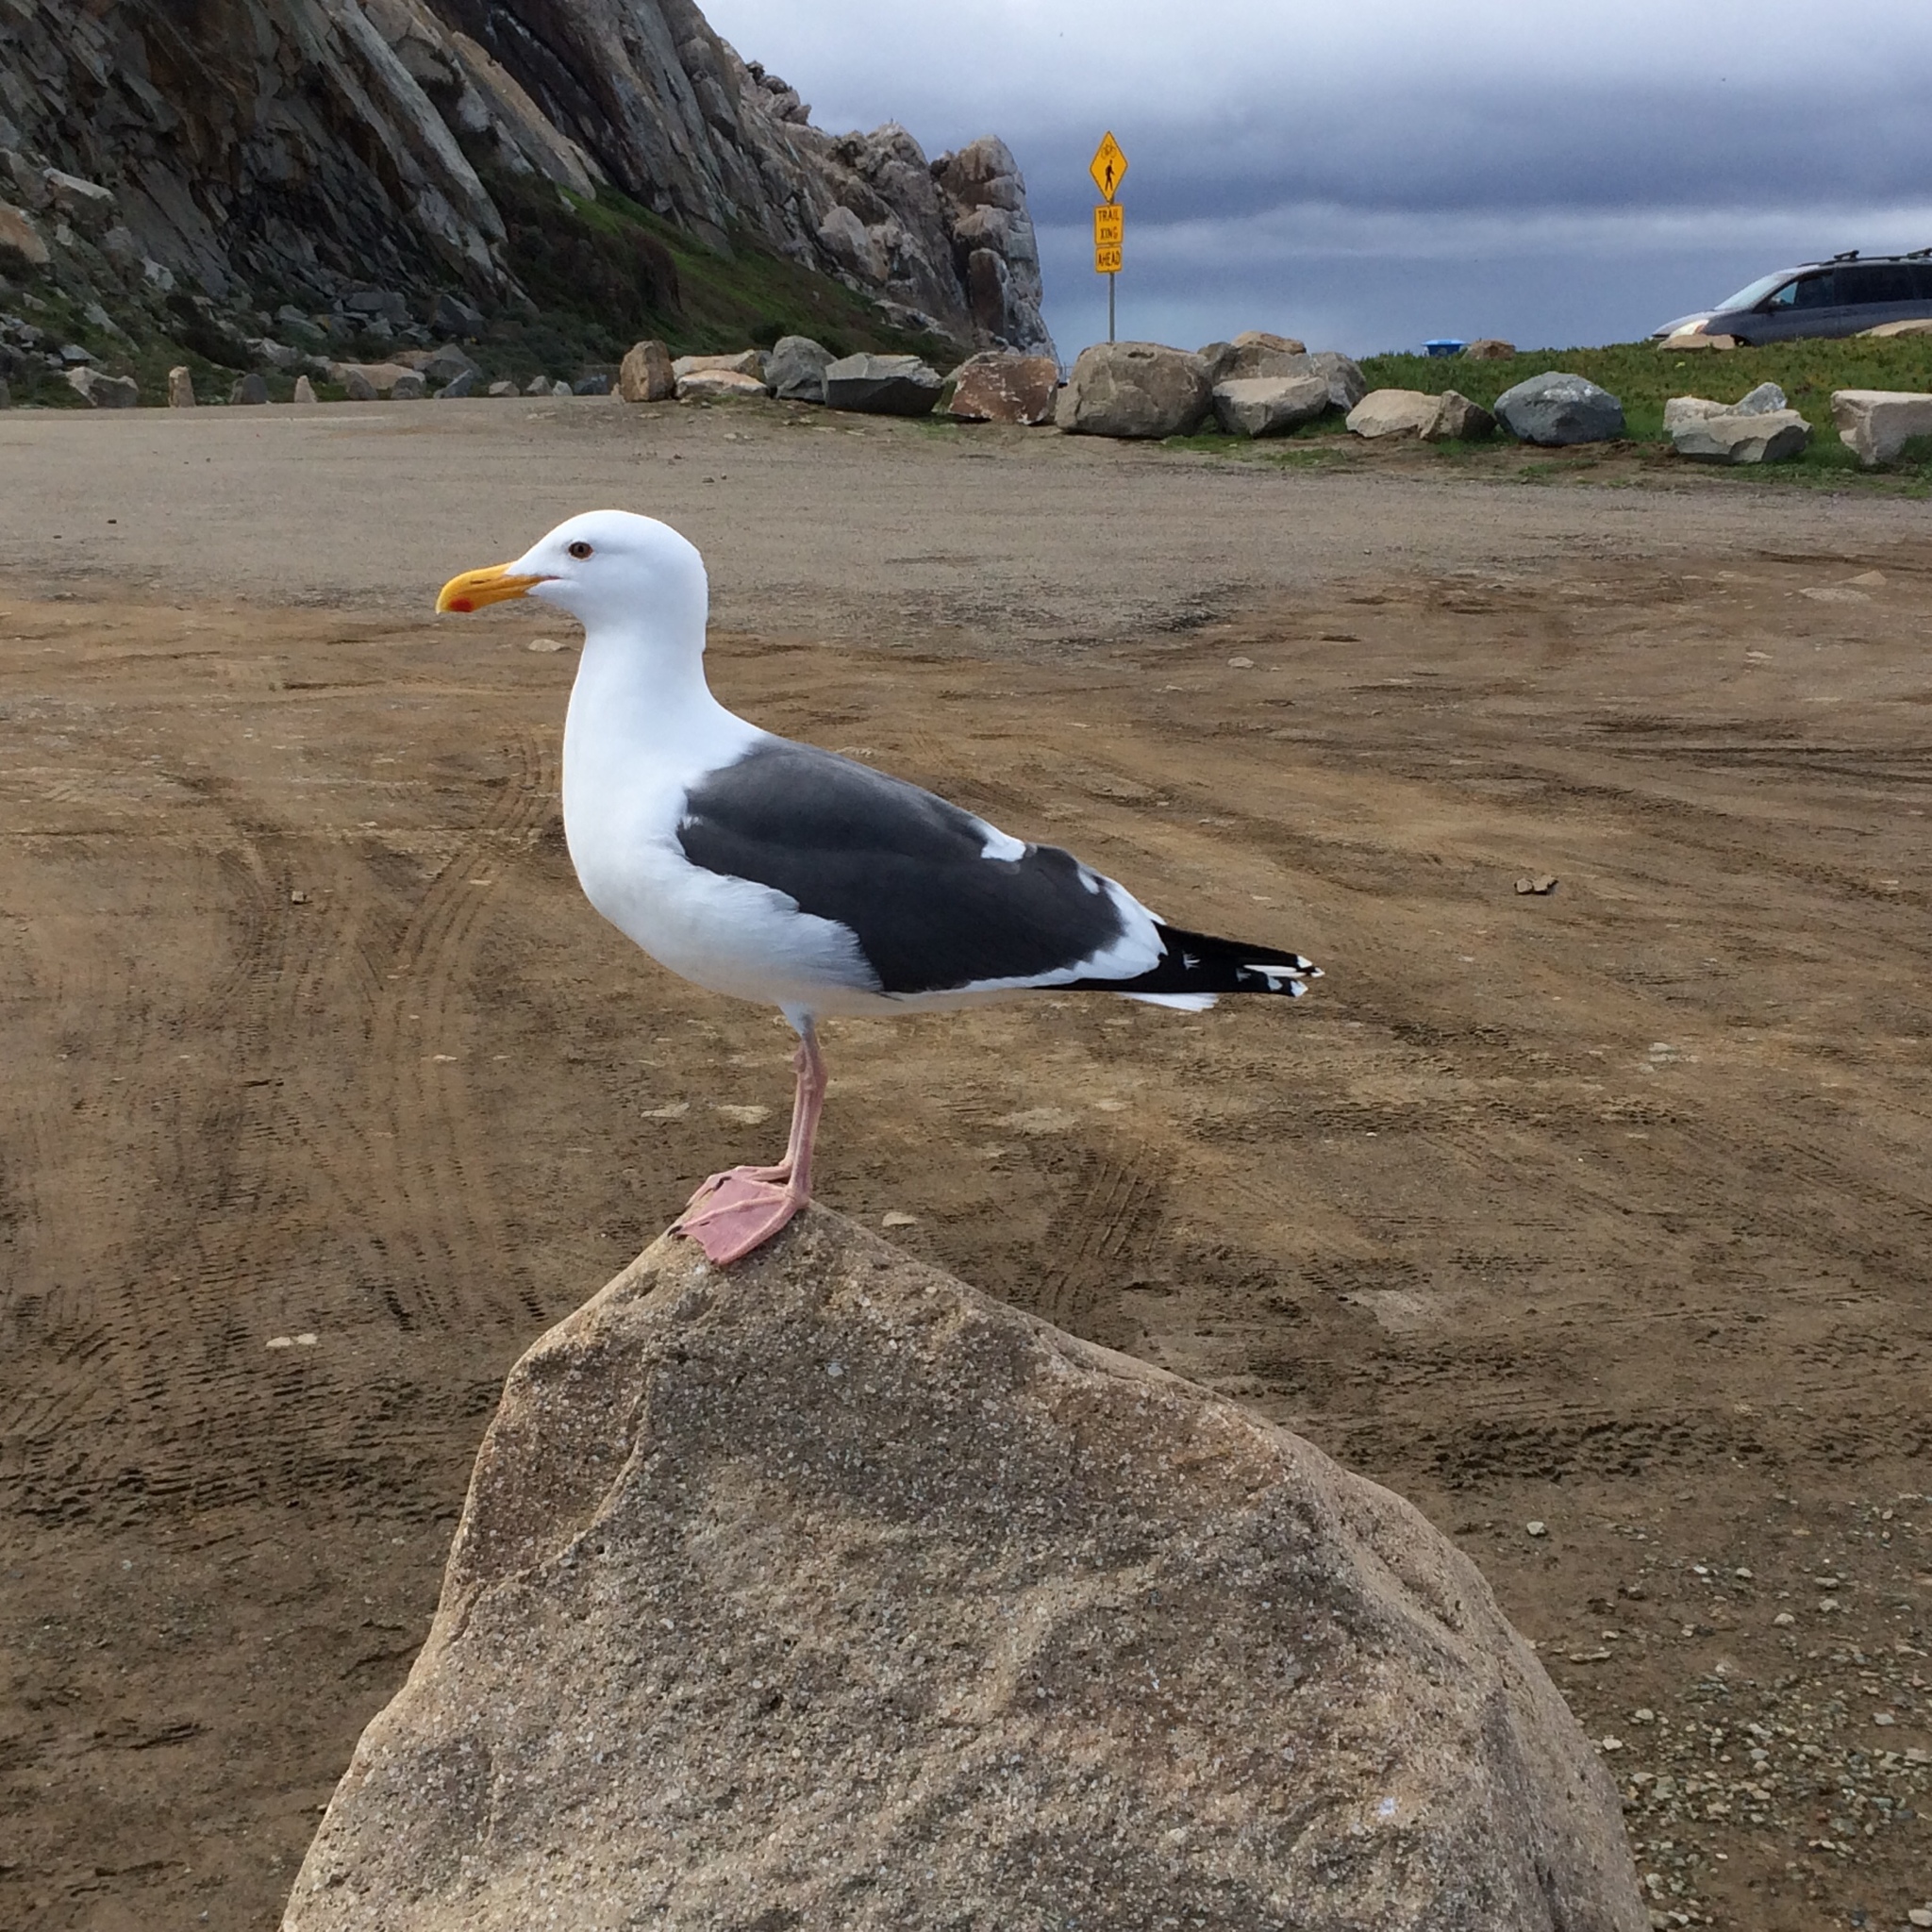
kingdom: Animalia
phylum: Chordata
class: Aves
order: Charadriiformes
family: Laridae
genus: Larus
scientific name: Larus occidentalis
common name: Western gull
